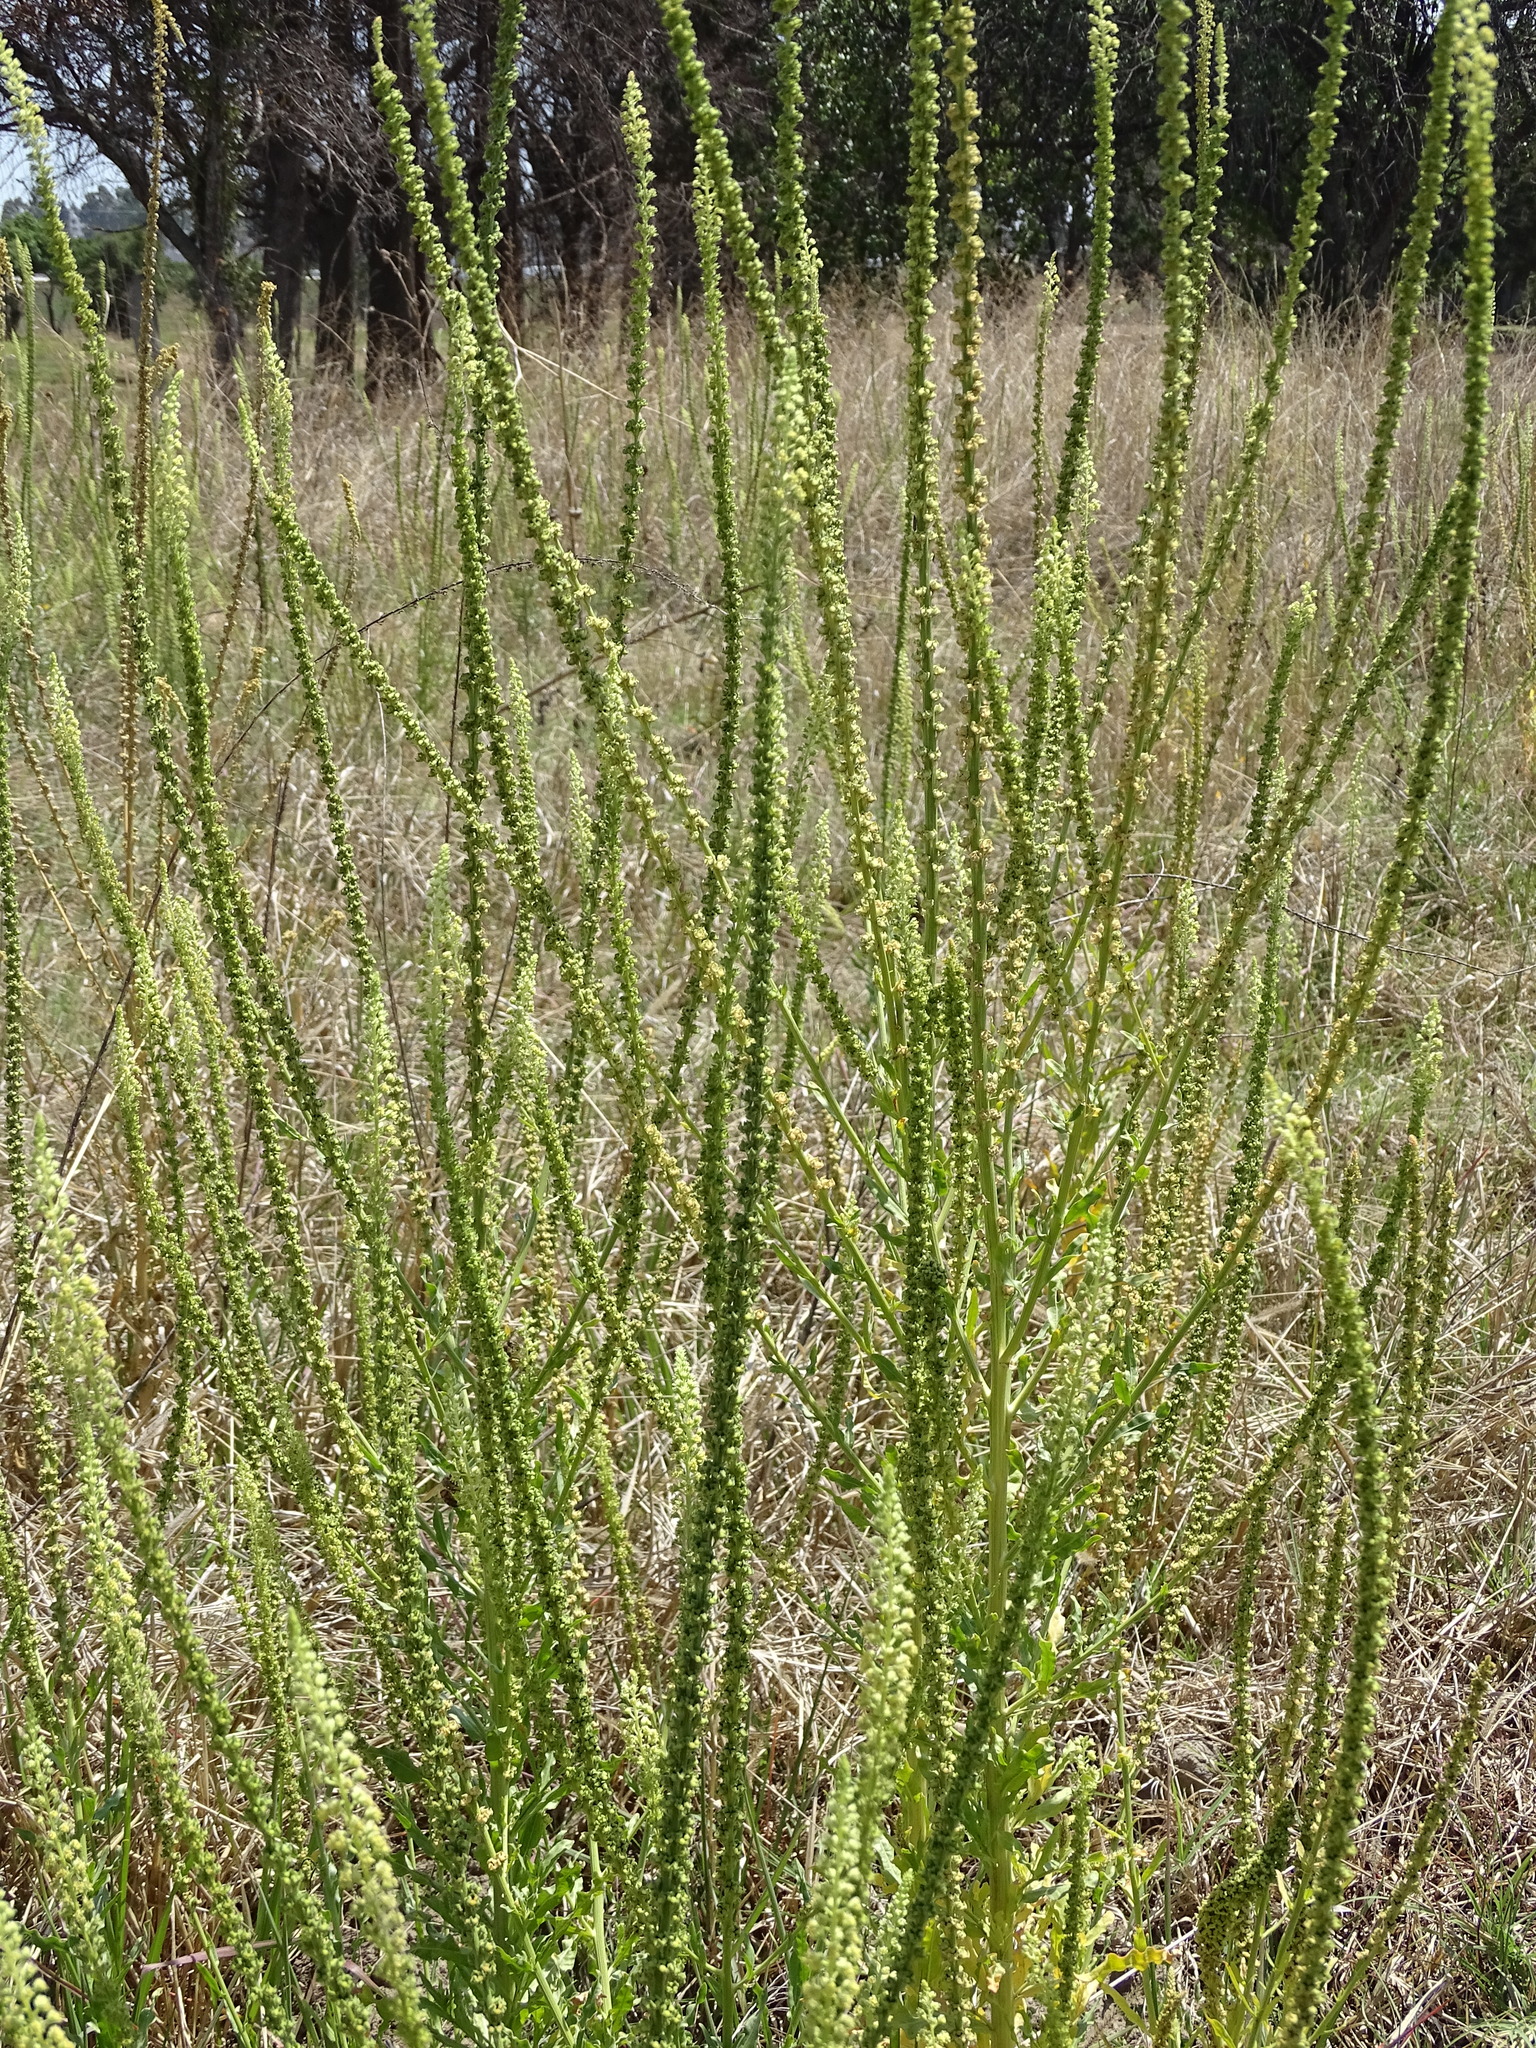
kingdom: Plantae
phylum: Tracheophyta
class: Magnoliopsida
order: Brassicales
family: Resedaceae
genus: Reseda
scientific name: Reseda luteola
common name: Weld
